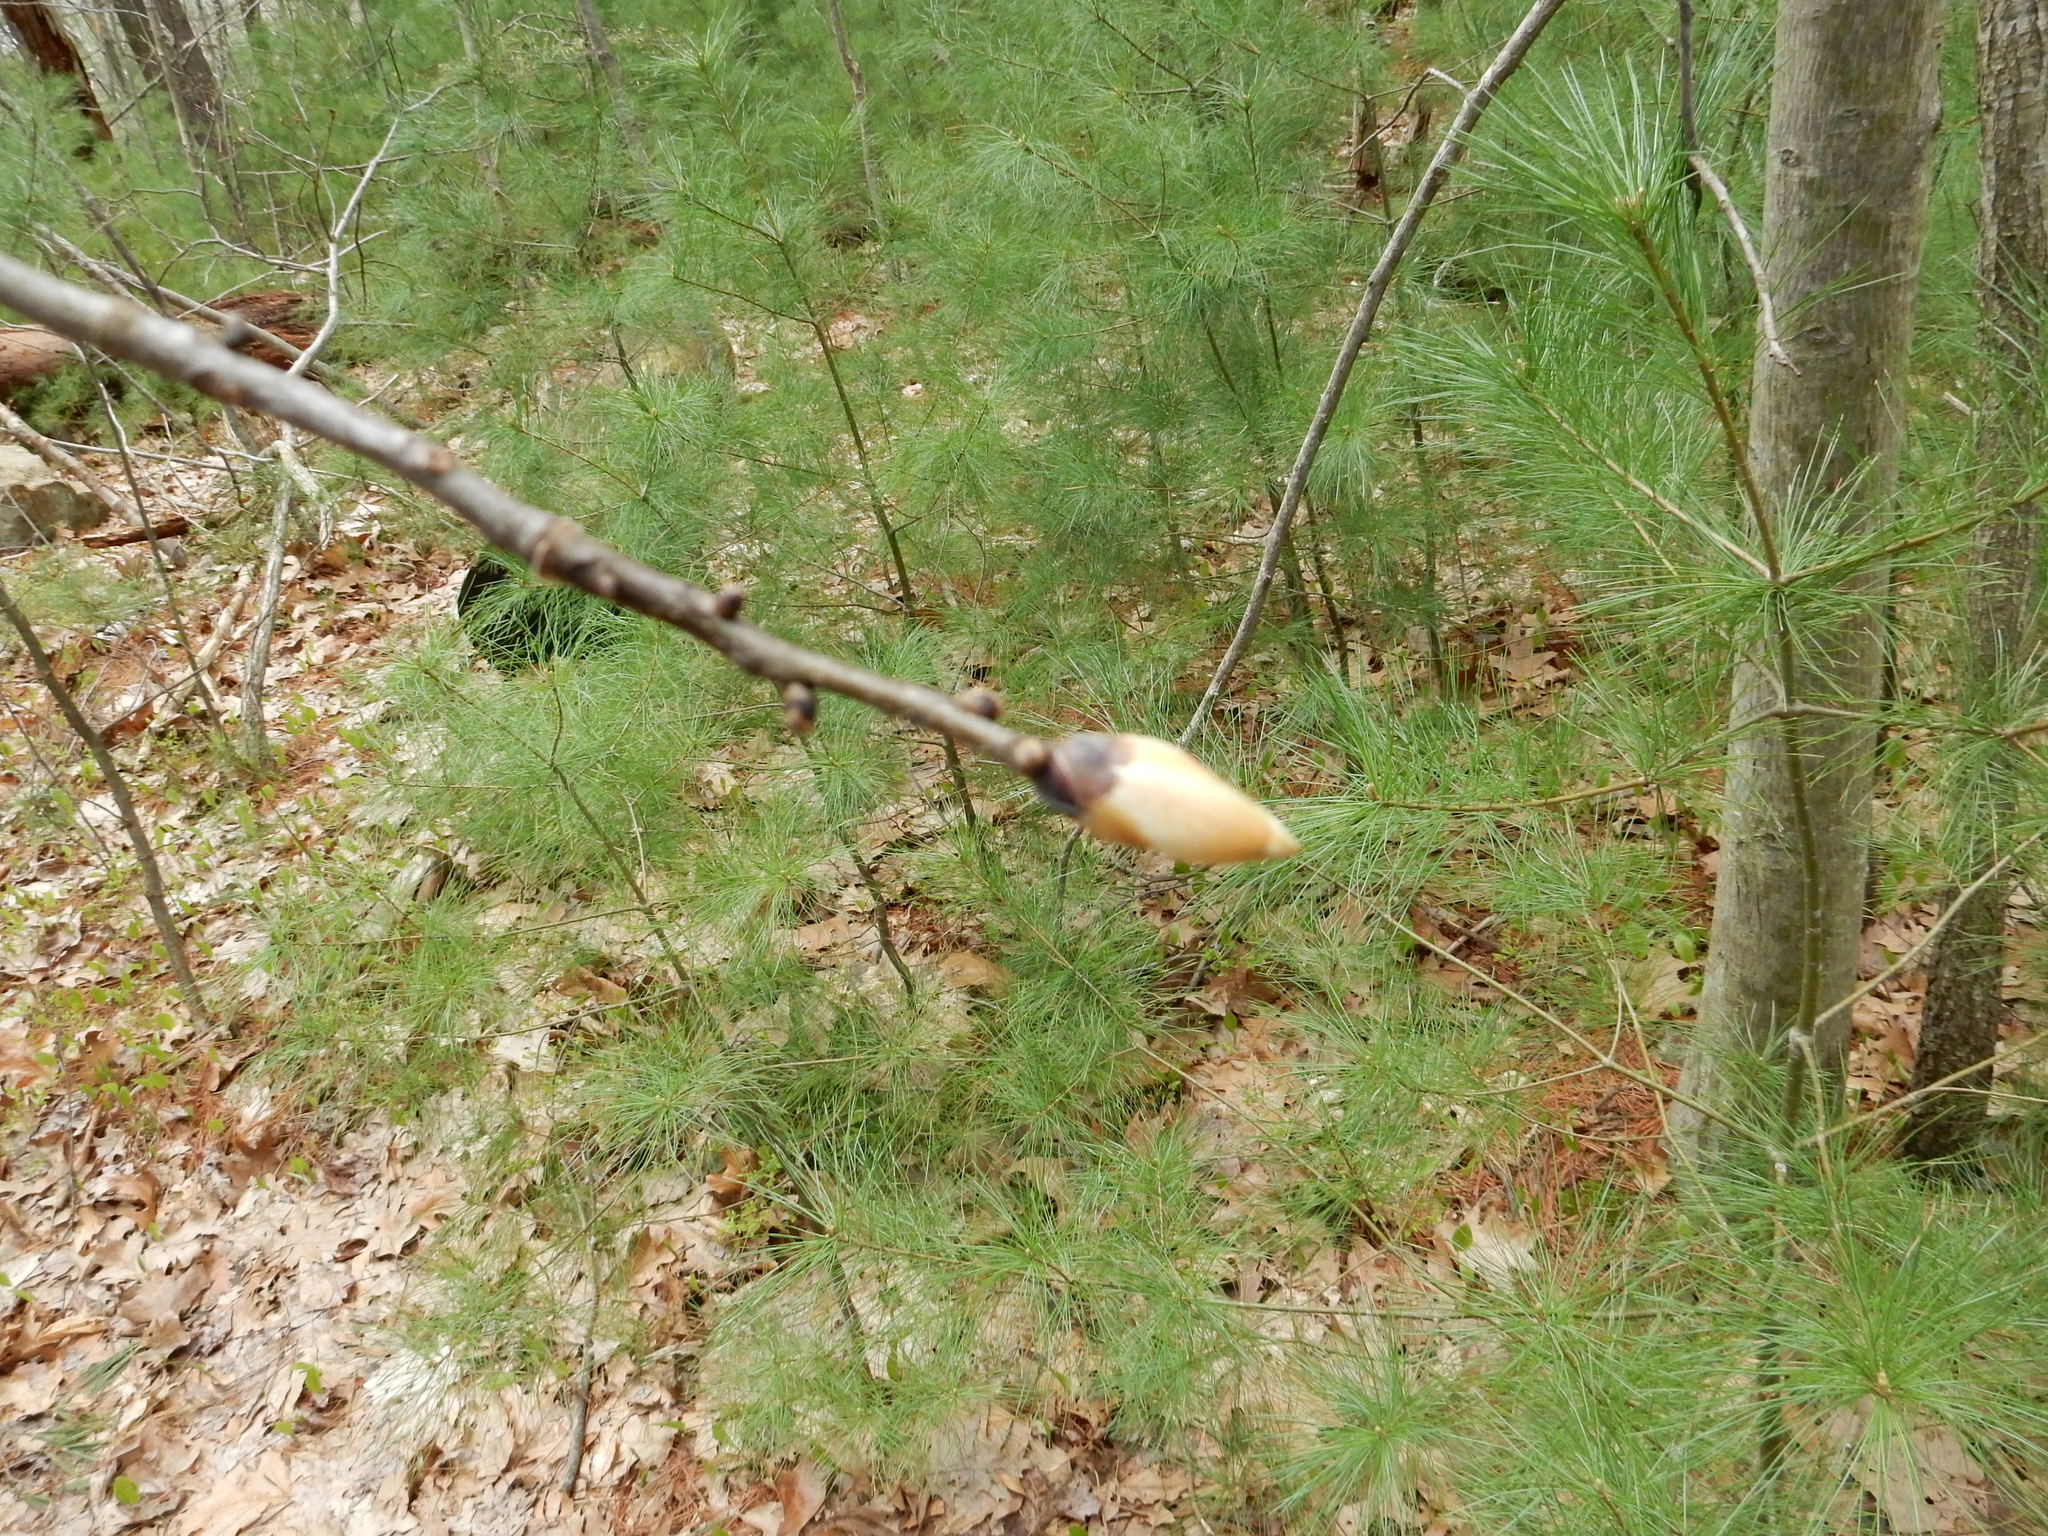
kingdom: Plantae
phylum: Tracheophyta
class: Magnoliopsida
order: Sapindales
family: Sapindaceae
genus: Acer
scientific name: Acer pensylvanicum
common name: Moosewood
